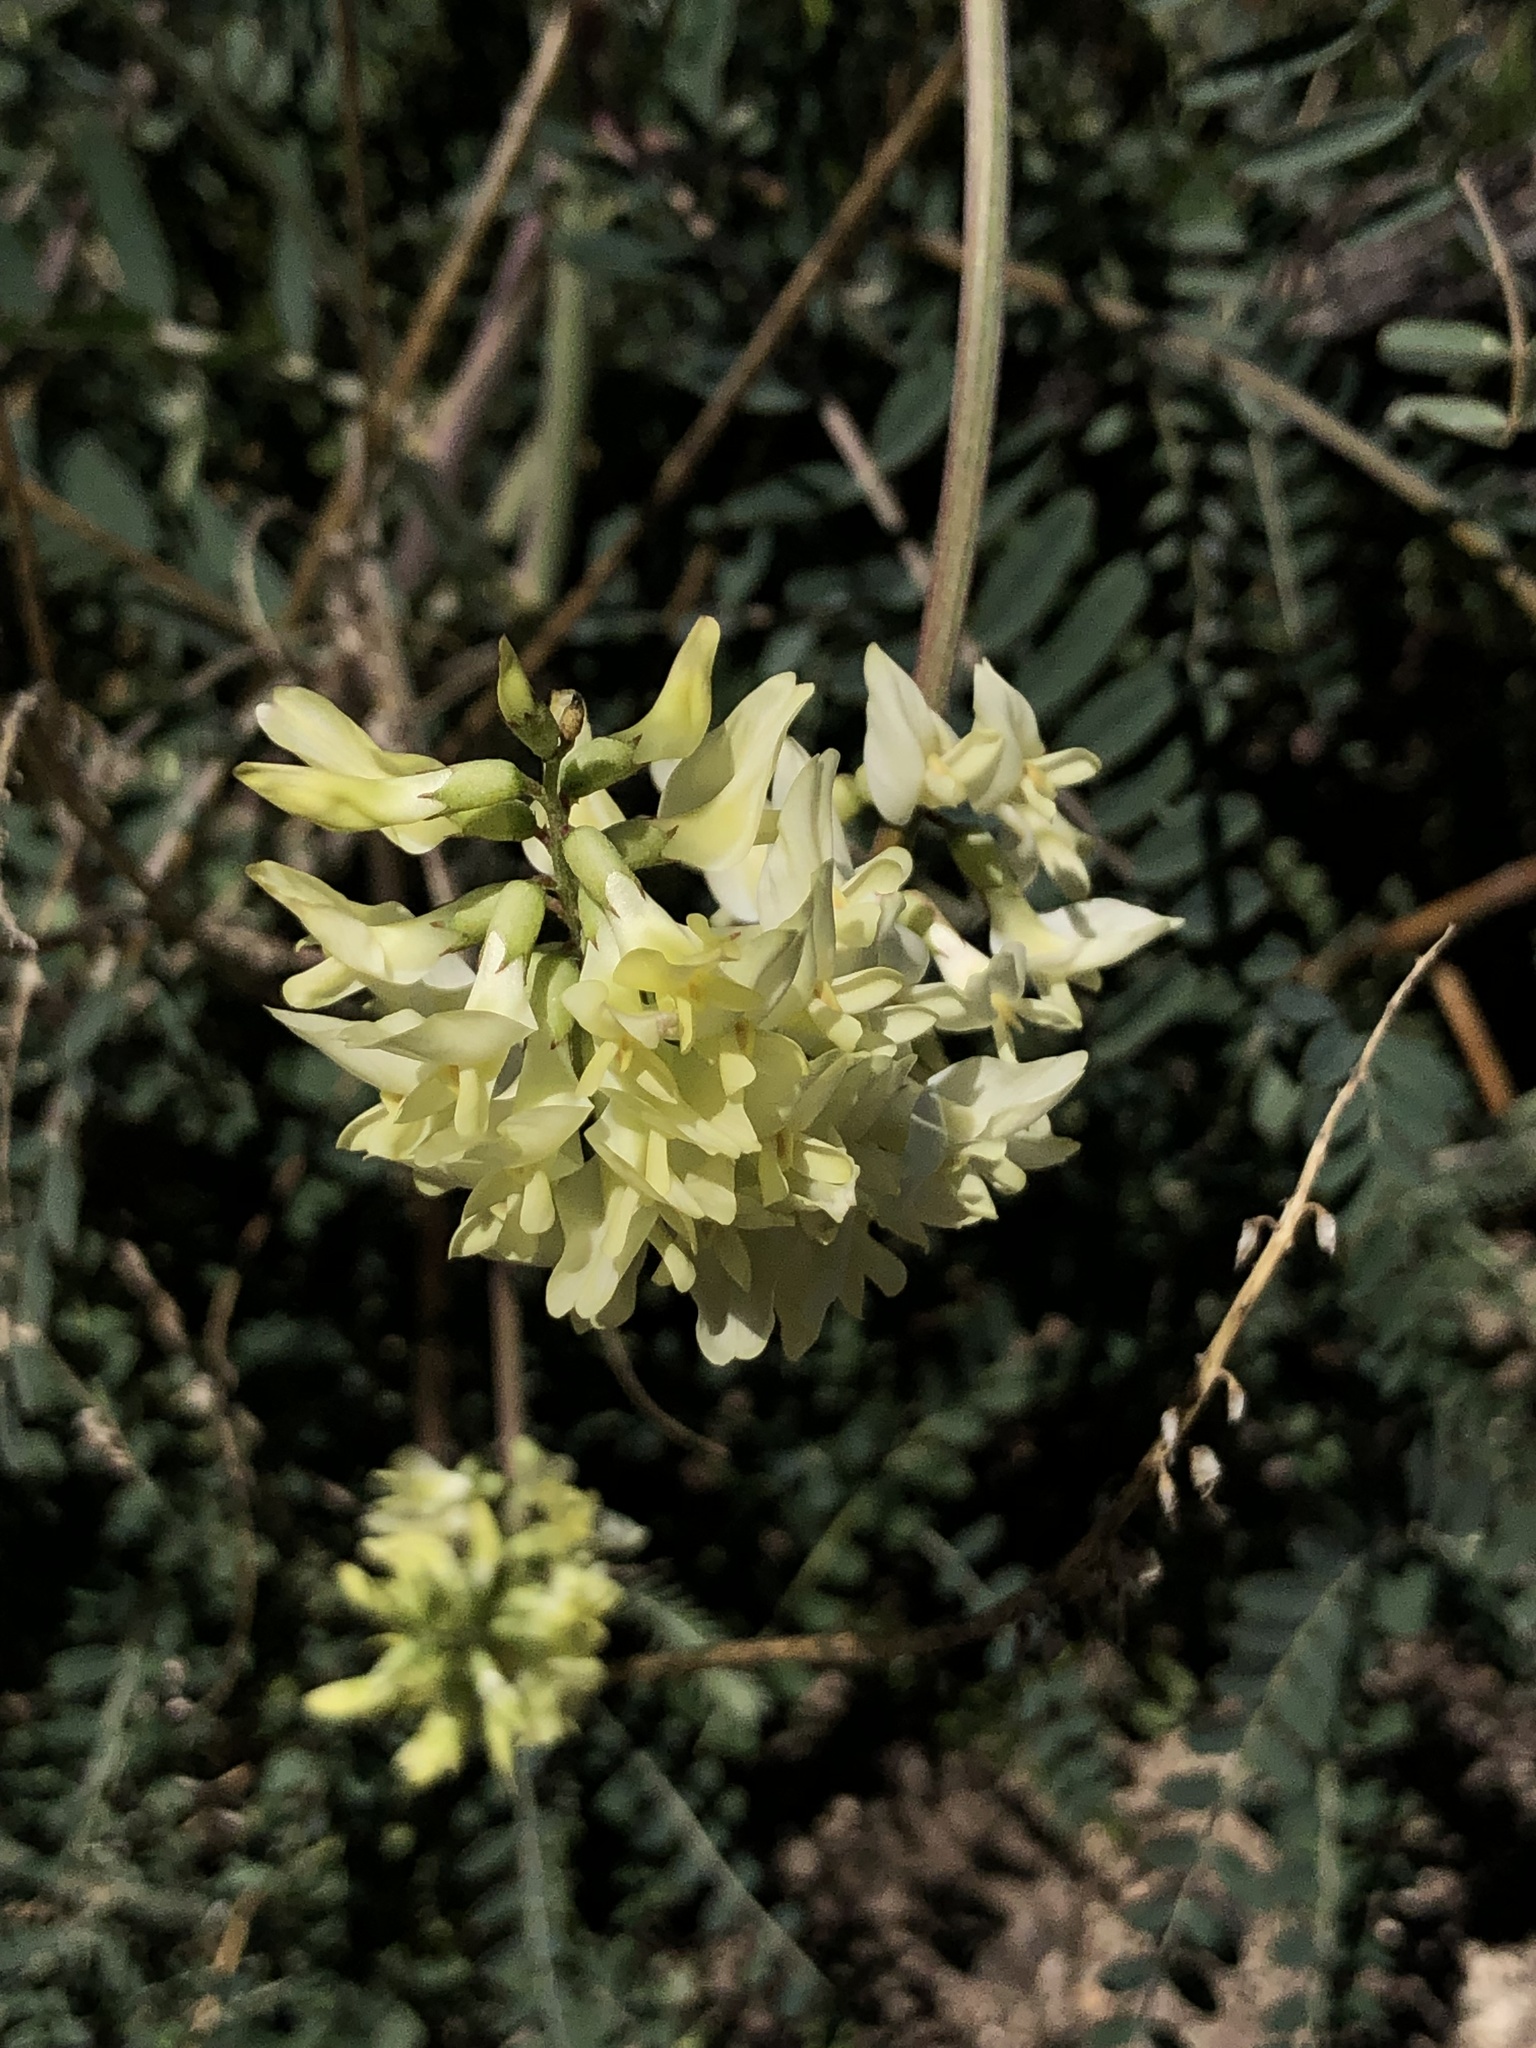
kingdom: Plantae
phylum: Tracheophyta
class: Magnoliopsida
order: Fabales
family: Fabaceae
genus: Astragalus
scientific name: Astragalus trichopodus
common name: Santa barbara milk-vetch
